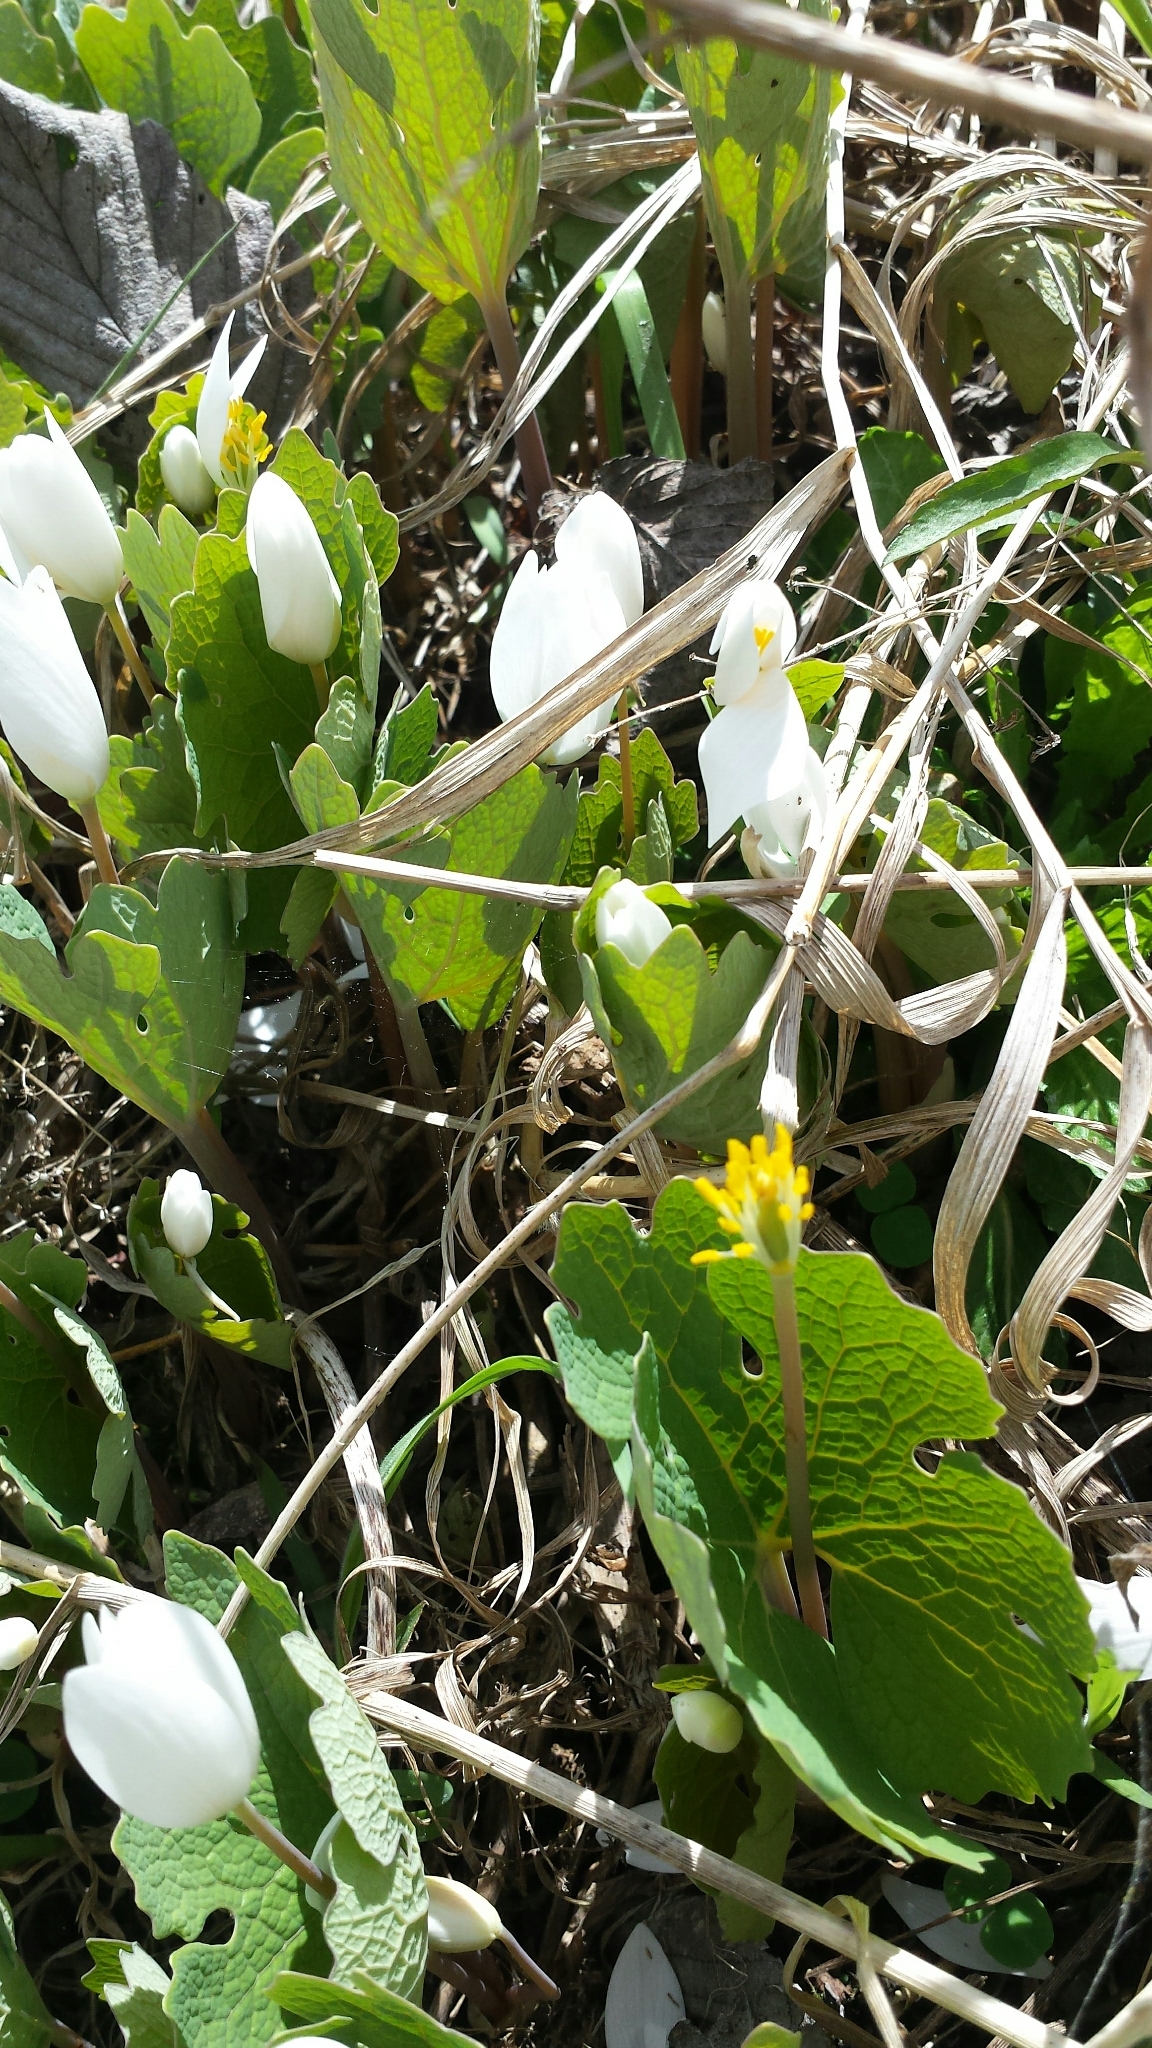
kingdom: Plantae
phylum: Tracheophyta
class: Magnoliopsida
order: Ranunculales
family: Papaveraceae
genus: Sanguinaria
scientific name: Sanguinaria canadensis
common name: Bloodroot
